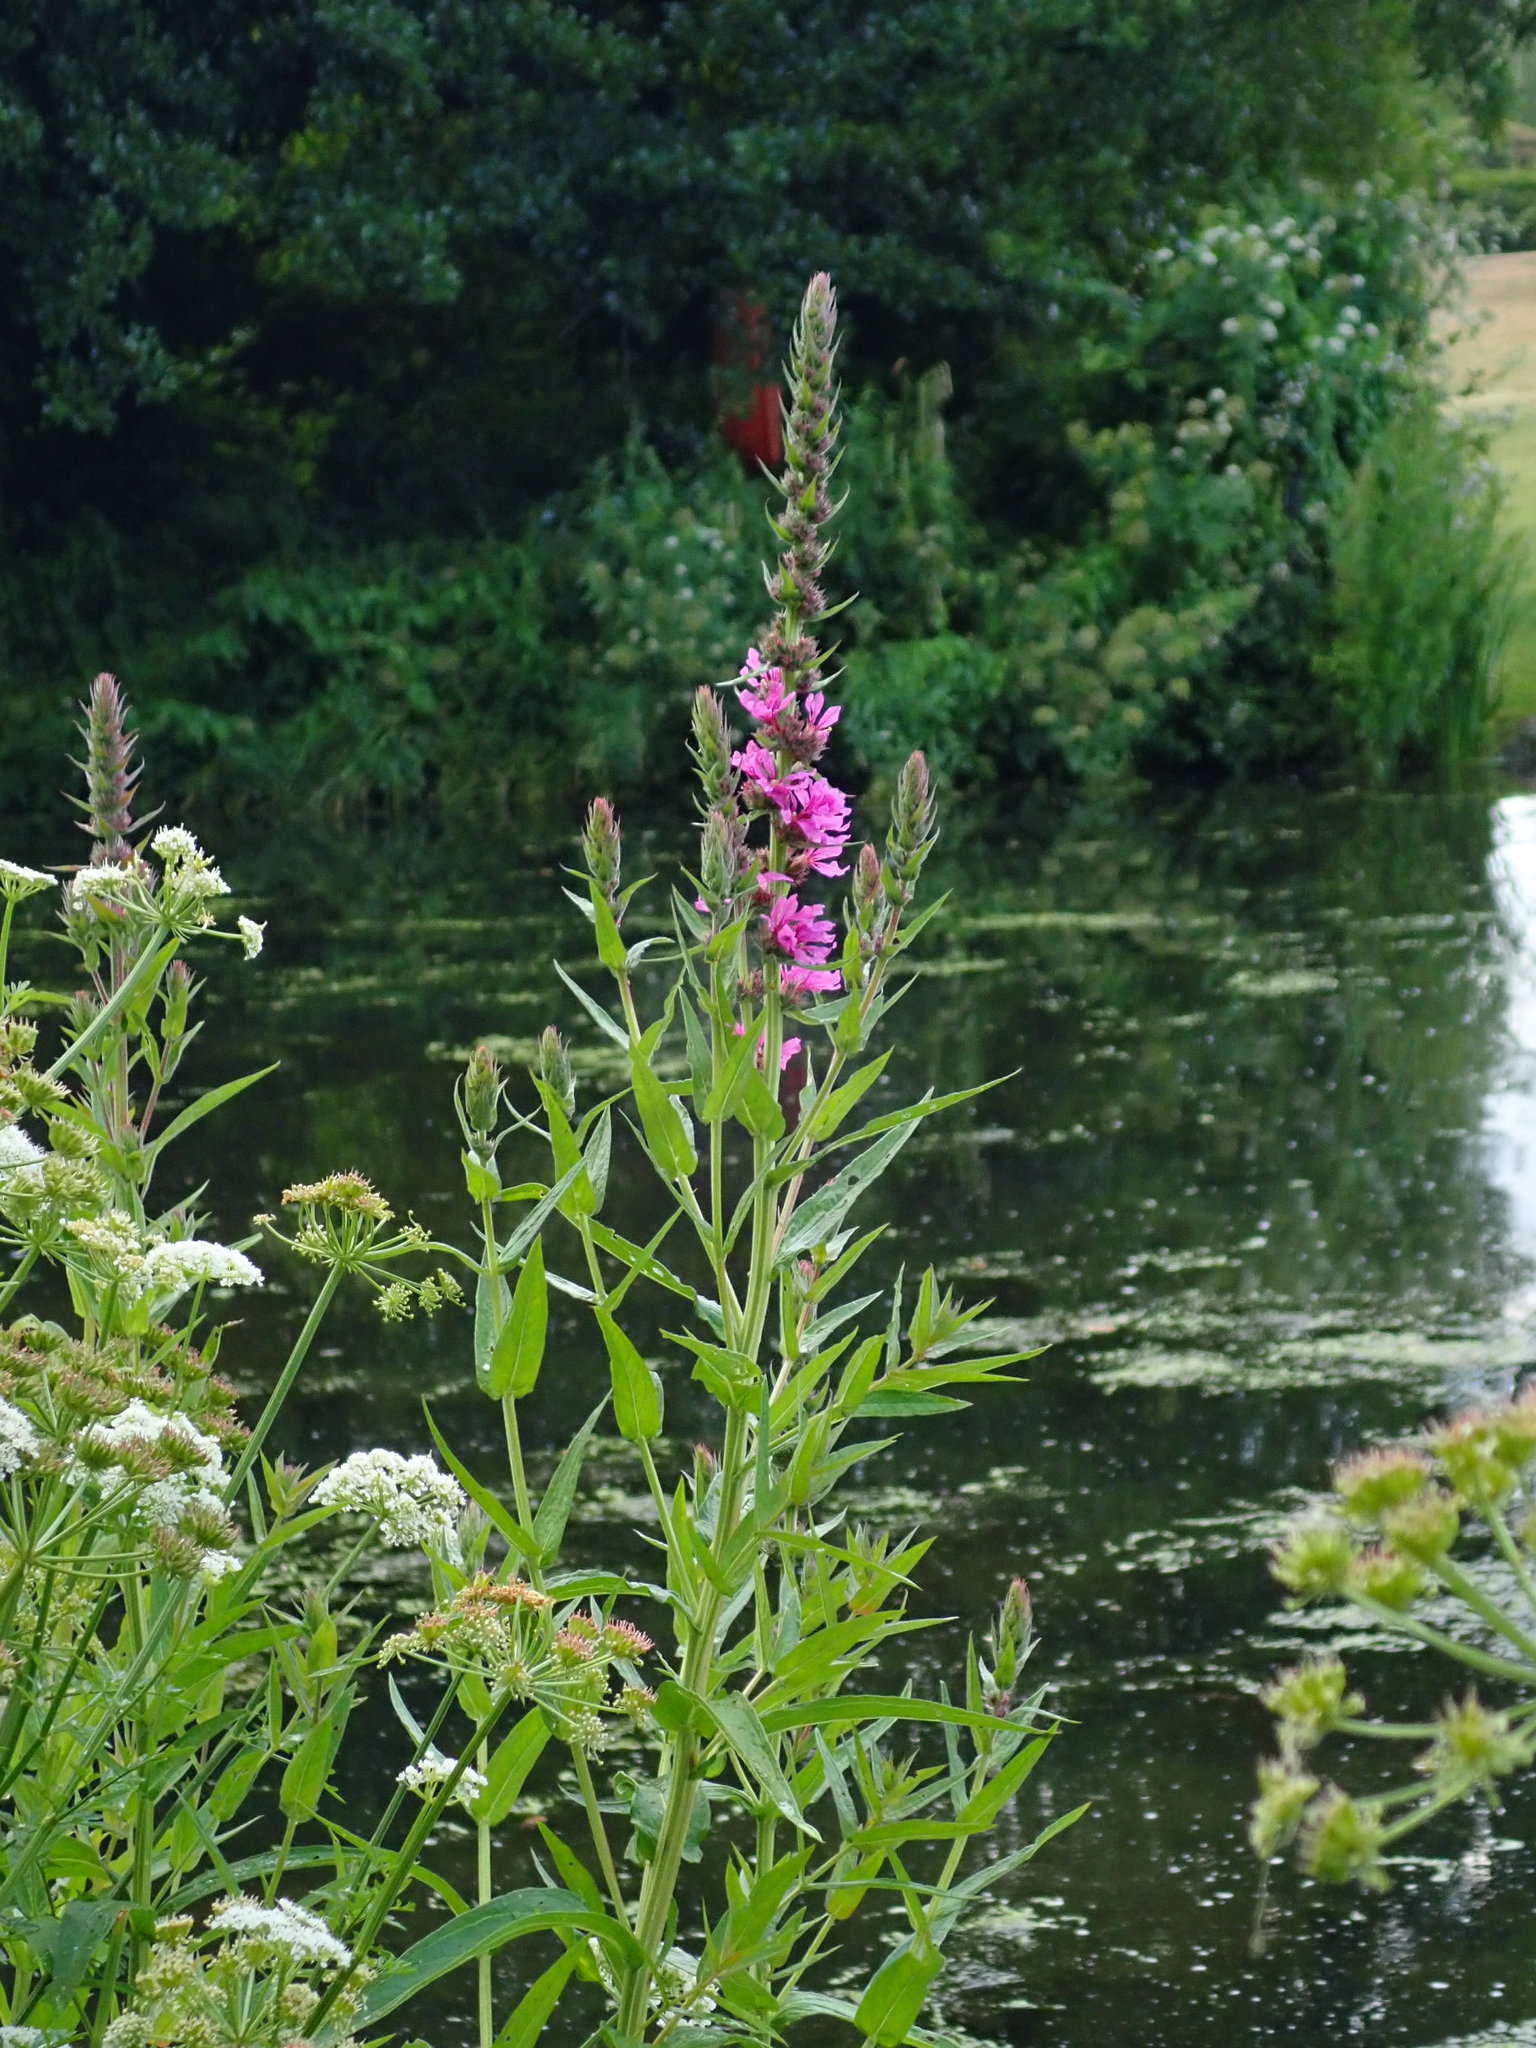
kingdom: Plantae
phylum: Tracheophyta
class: Magnoliopsida
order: Myrtales
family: Lythraceae
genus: Lythrum
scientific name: Lythrum salicaria
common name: Purple loosestrife
